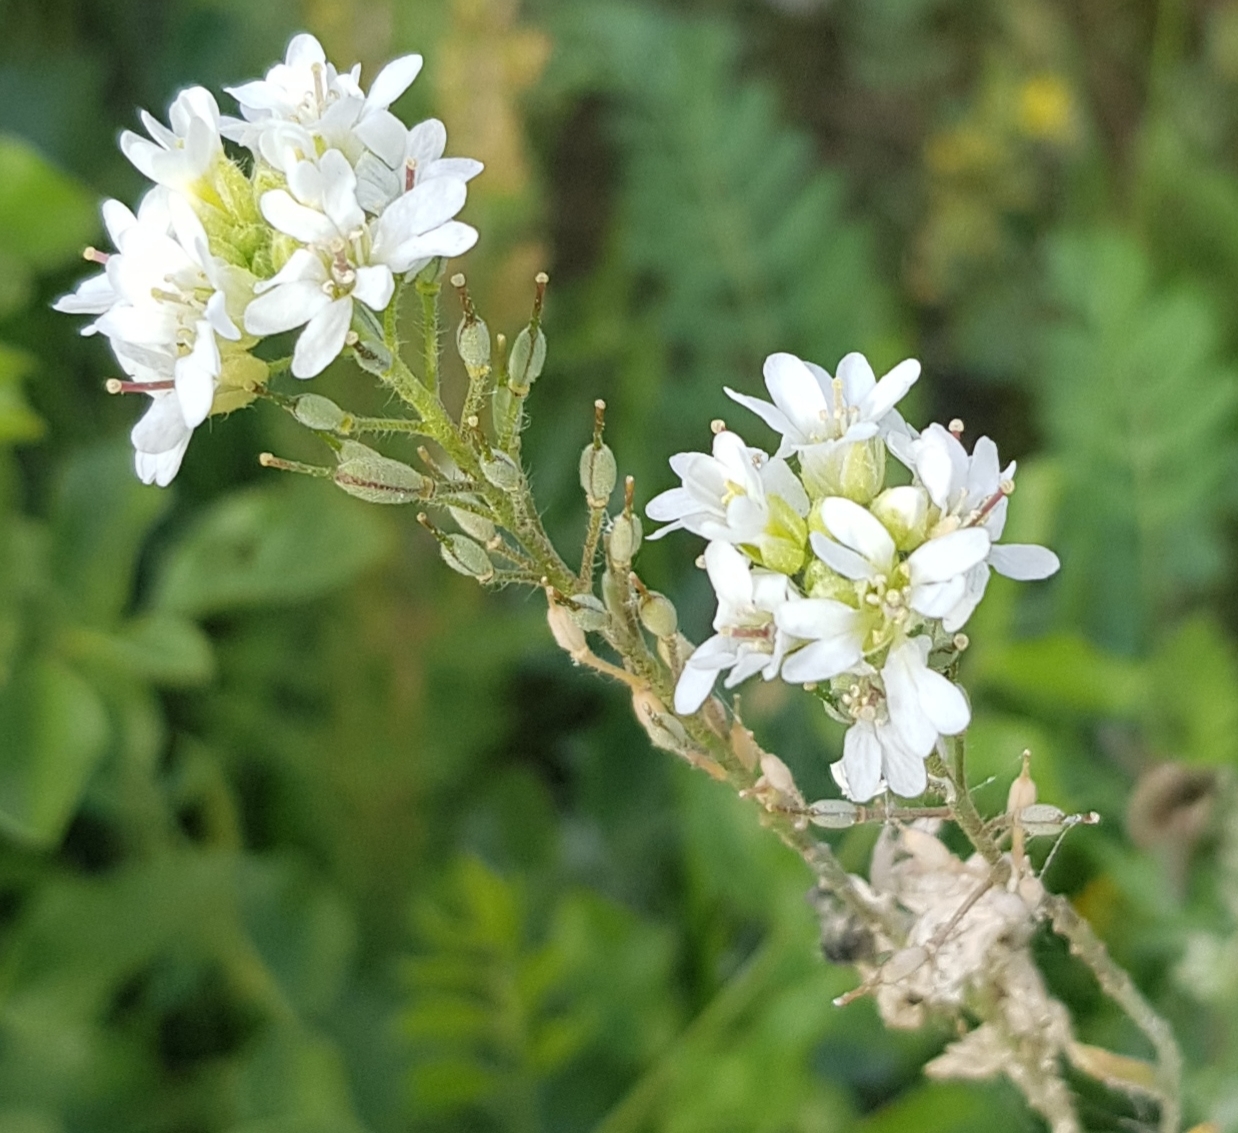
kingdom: Plantae
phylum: Tracheophyta
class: Magnoliopsida
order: Brassicales
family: Brassicaceae
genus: Berteroa
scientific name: Berteroa incana
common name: Hoary alison
